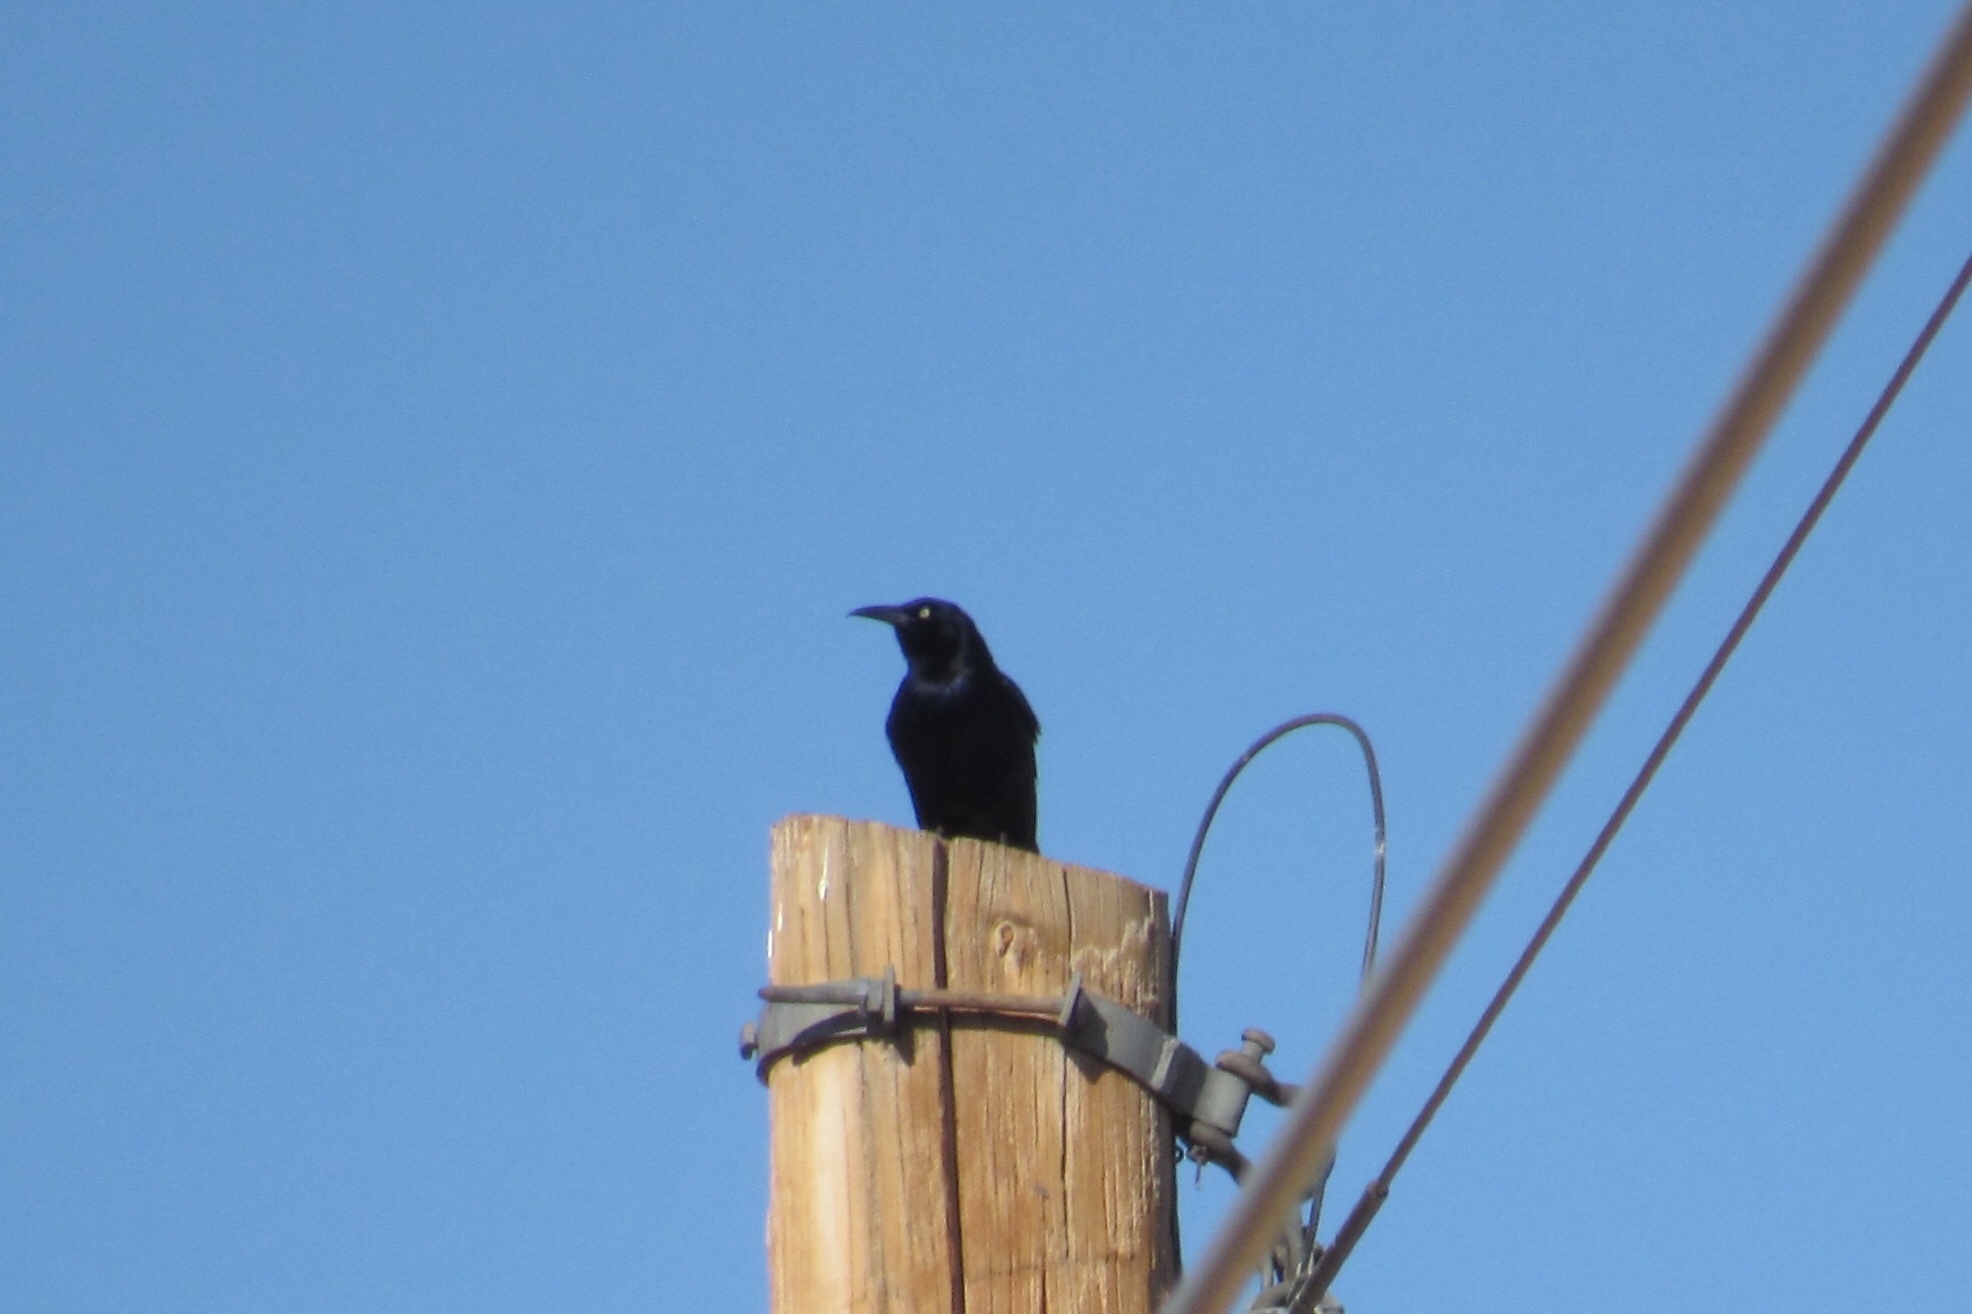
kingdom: Animalia
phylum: Chordata
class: Aves
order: Passeriformes
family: Icteridae
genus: Quiscalus
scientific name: Quiscalus mexicanus
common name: Great-tailed grackle
